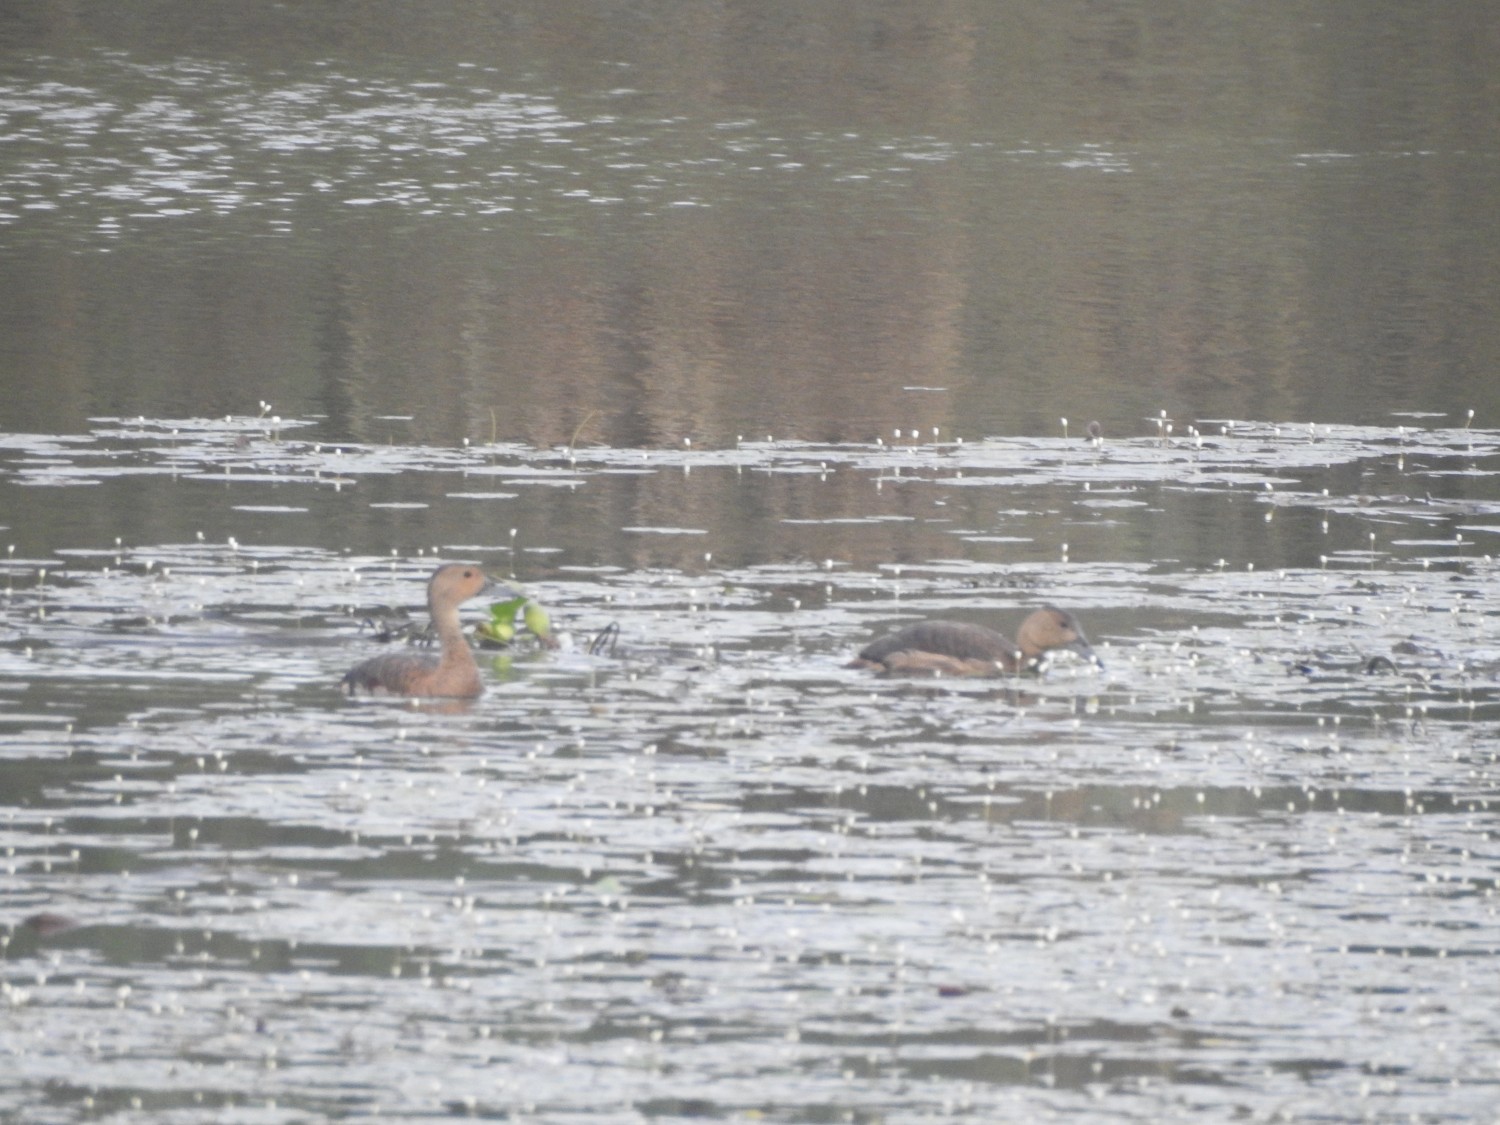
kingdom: Animalia
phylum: Chordata
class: Aves
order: Anseriformes
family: Anatidae
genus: Dendrocygna
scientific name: Dendrocygna javanica
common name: Lesser whistling-duck
